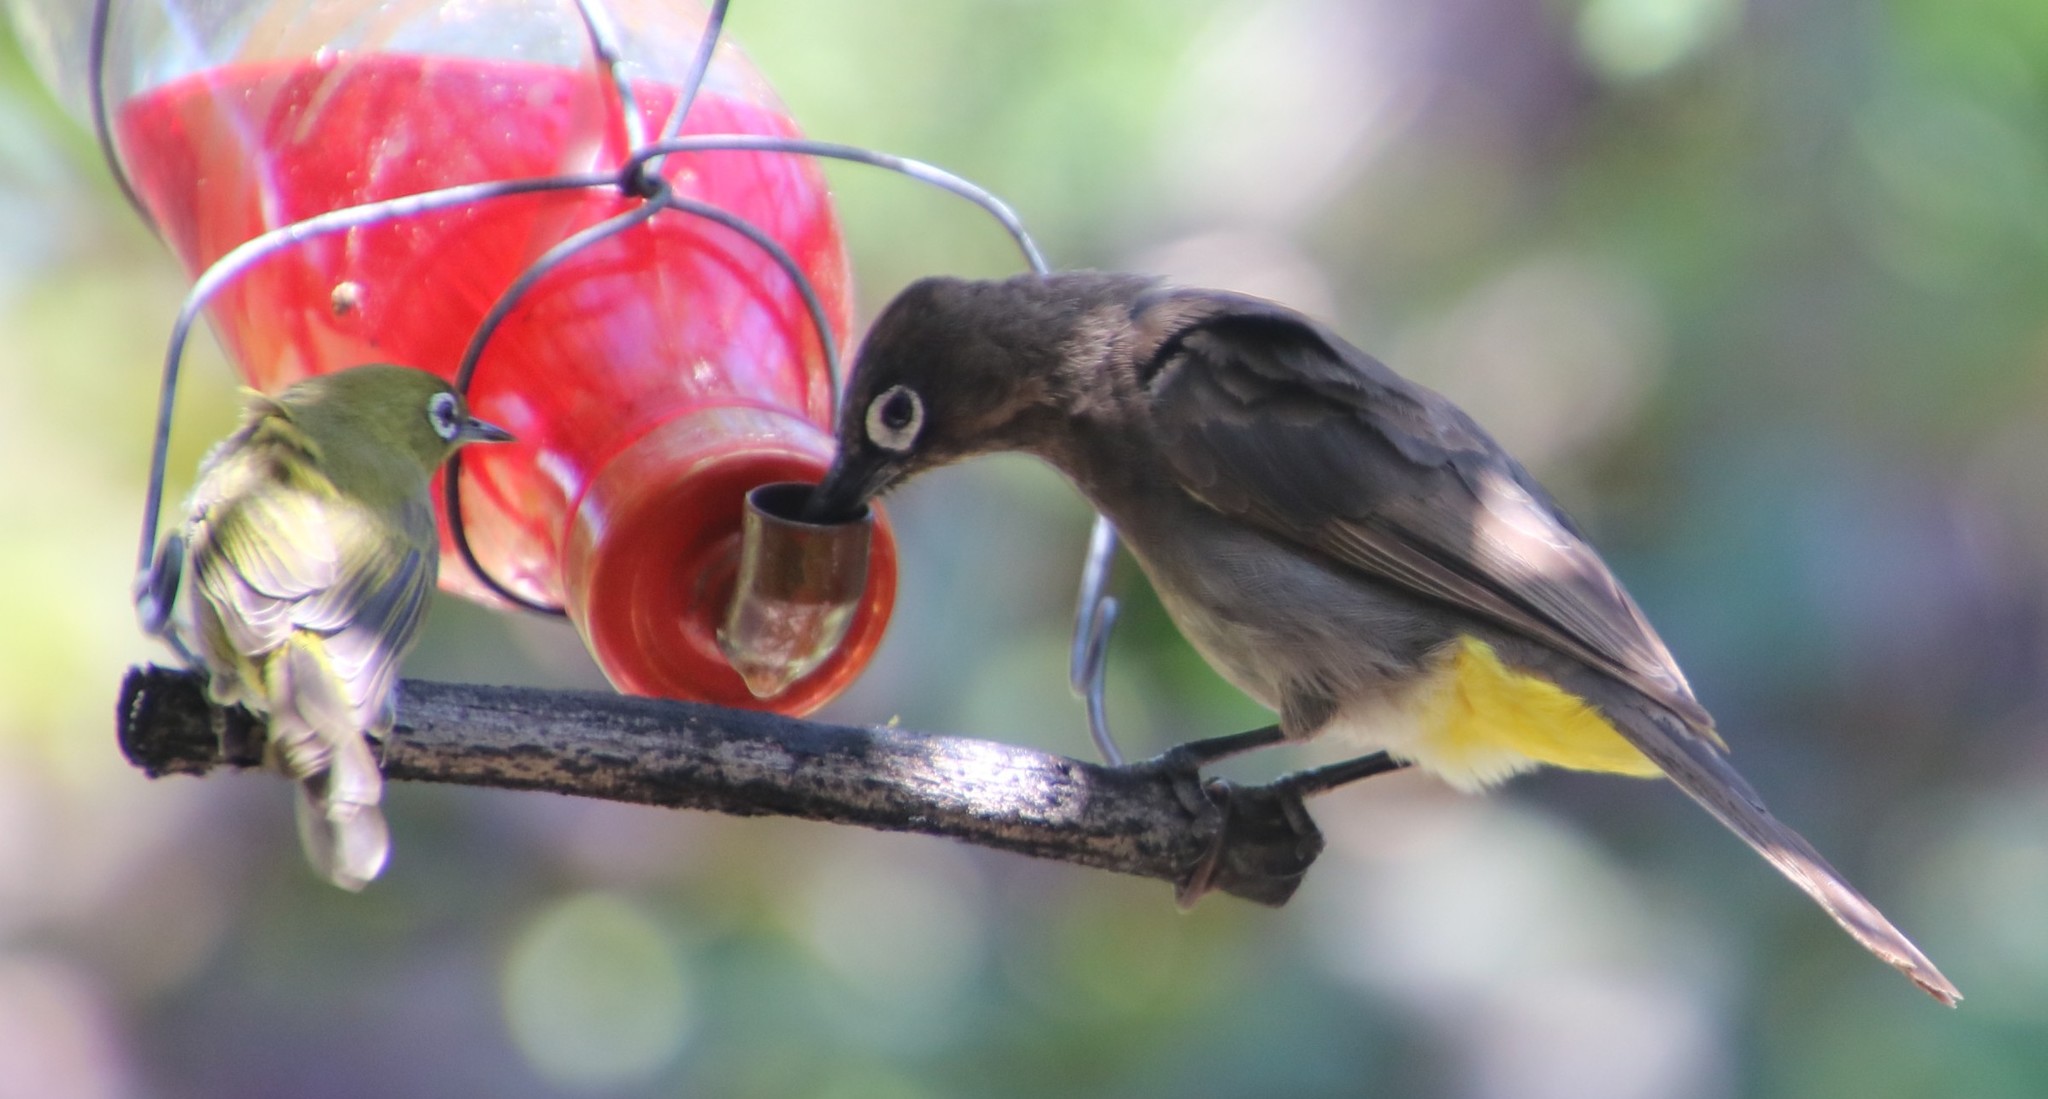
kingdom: Animalia
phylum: Chordata
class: Aves
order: Passeriformes
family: Pycnonotidae
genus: Pycnonotus
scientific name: Pycnonotus capensis
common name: Cape bulbul
